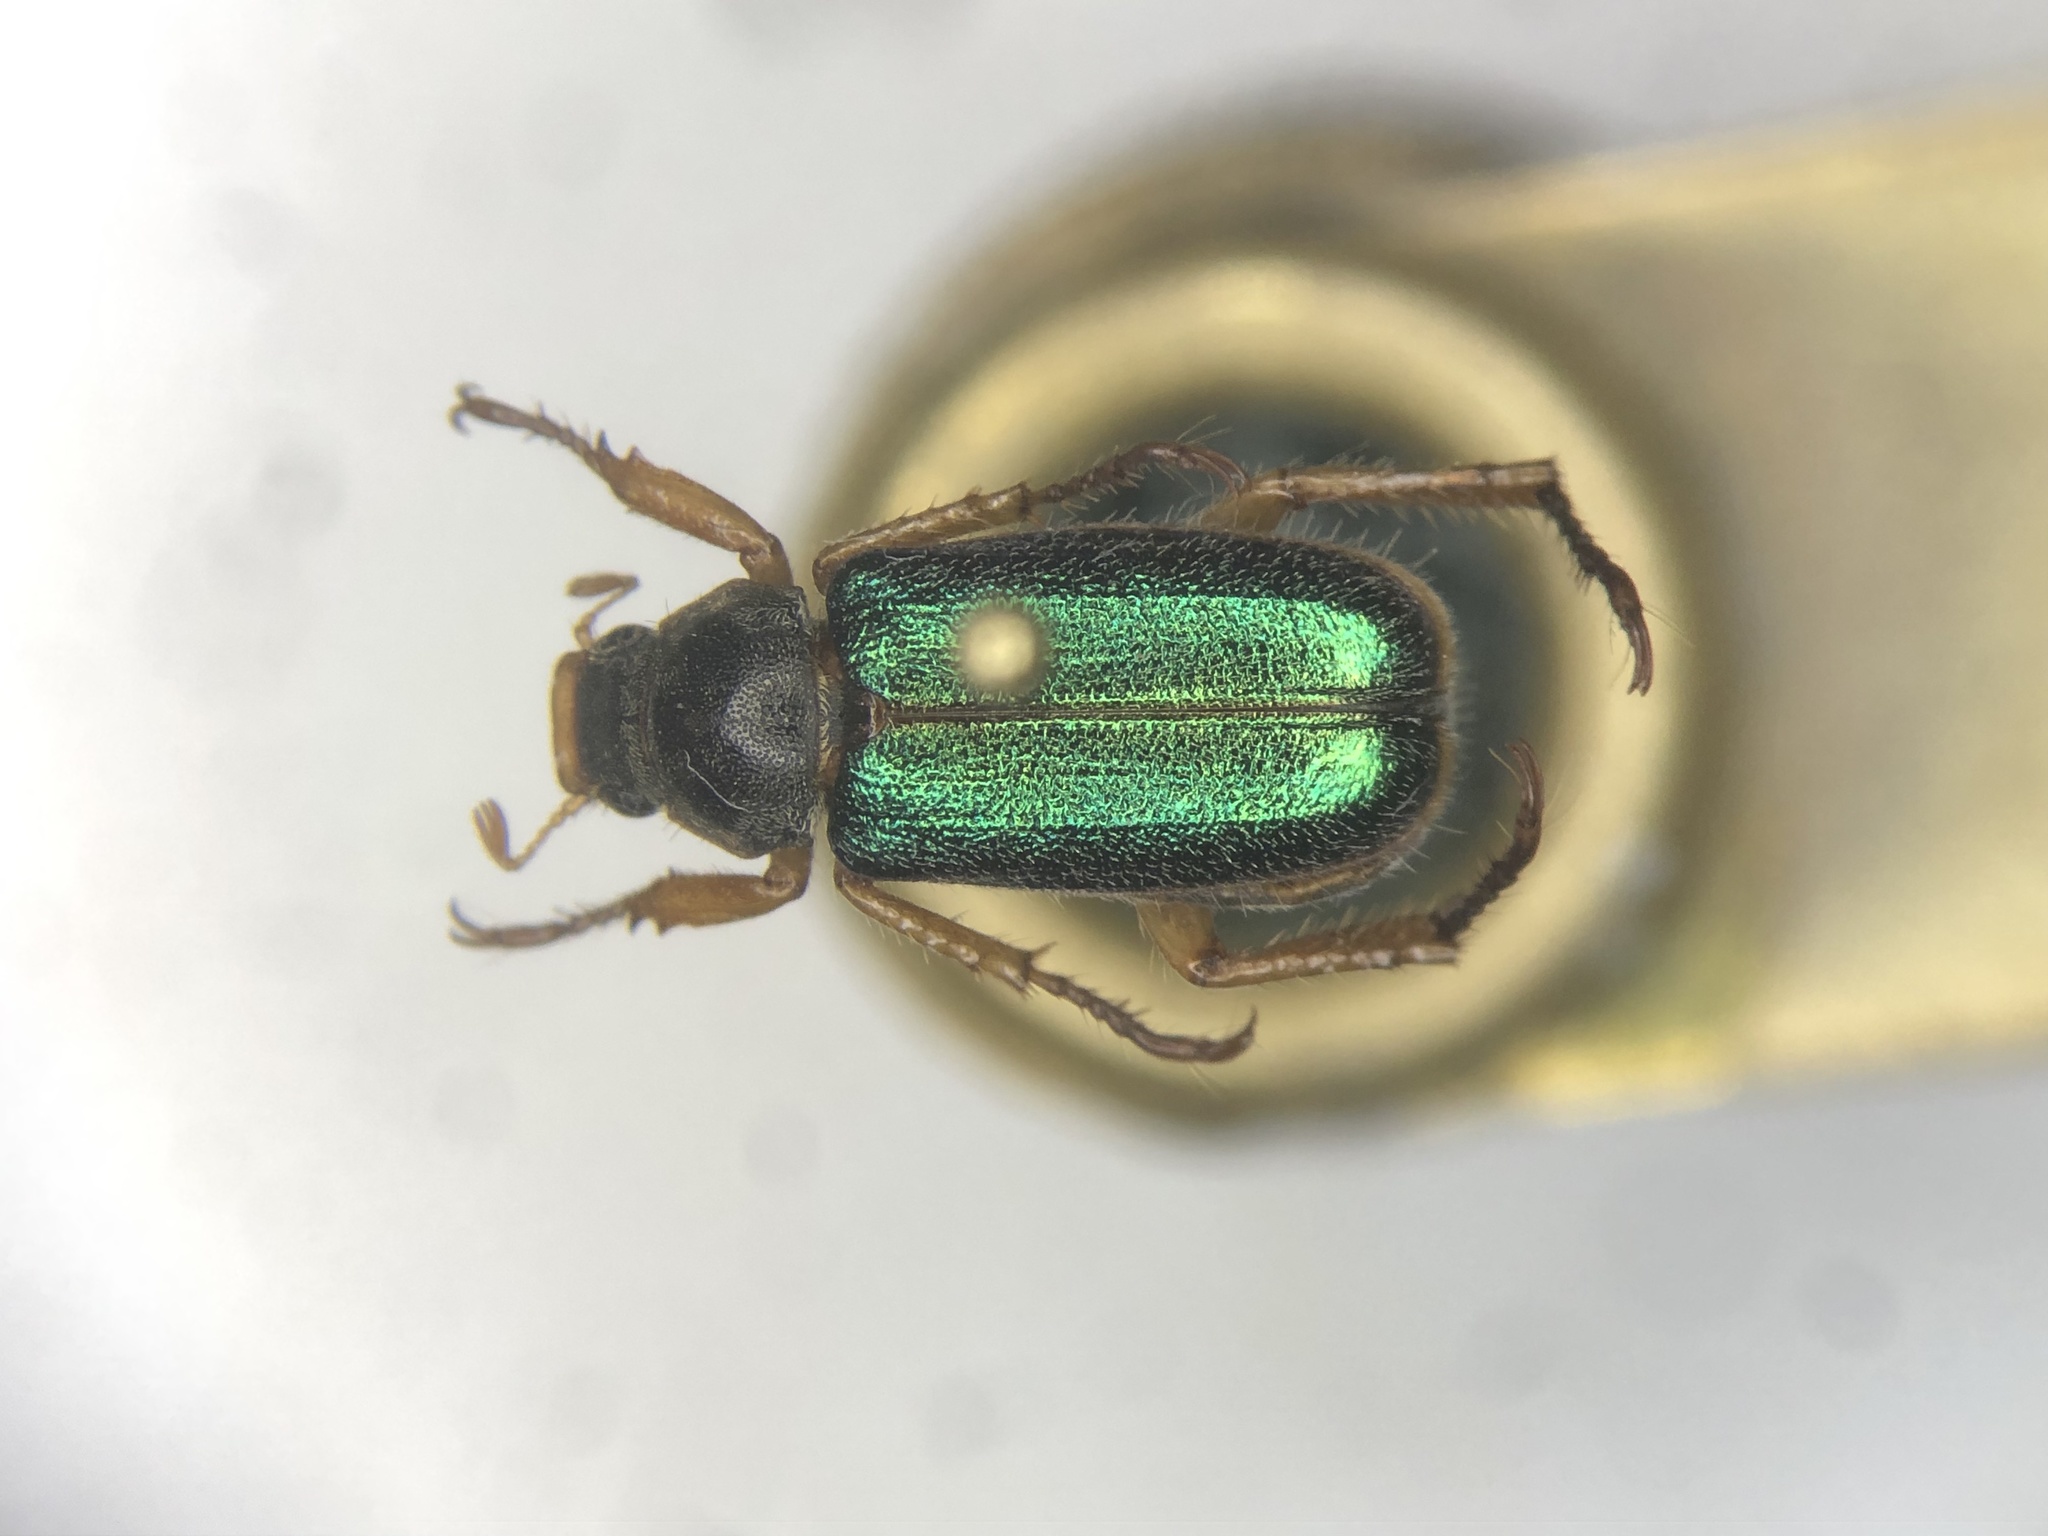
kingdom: Animalia
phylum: Arthropoda
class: Insecta
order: Coleoptera
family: Scarabaeidae
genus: Dichelonyx
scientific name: Dichelonyx canadensis
